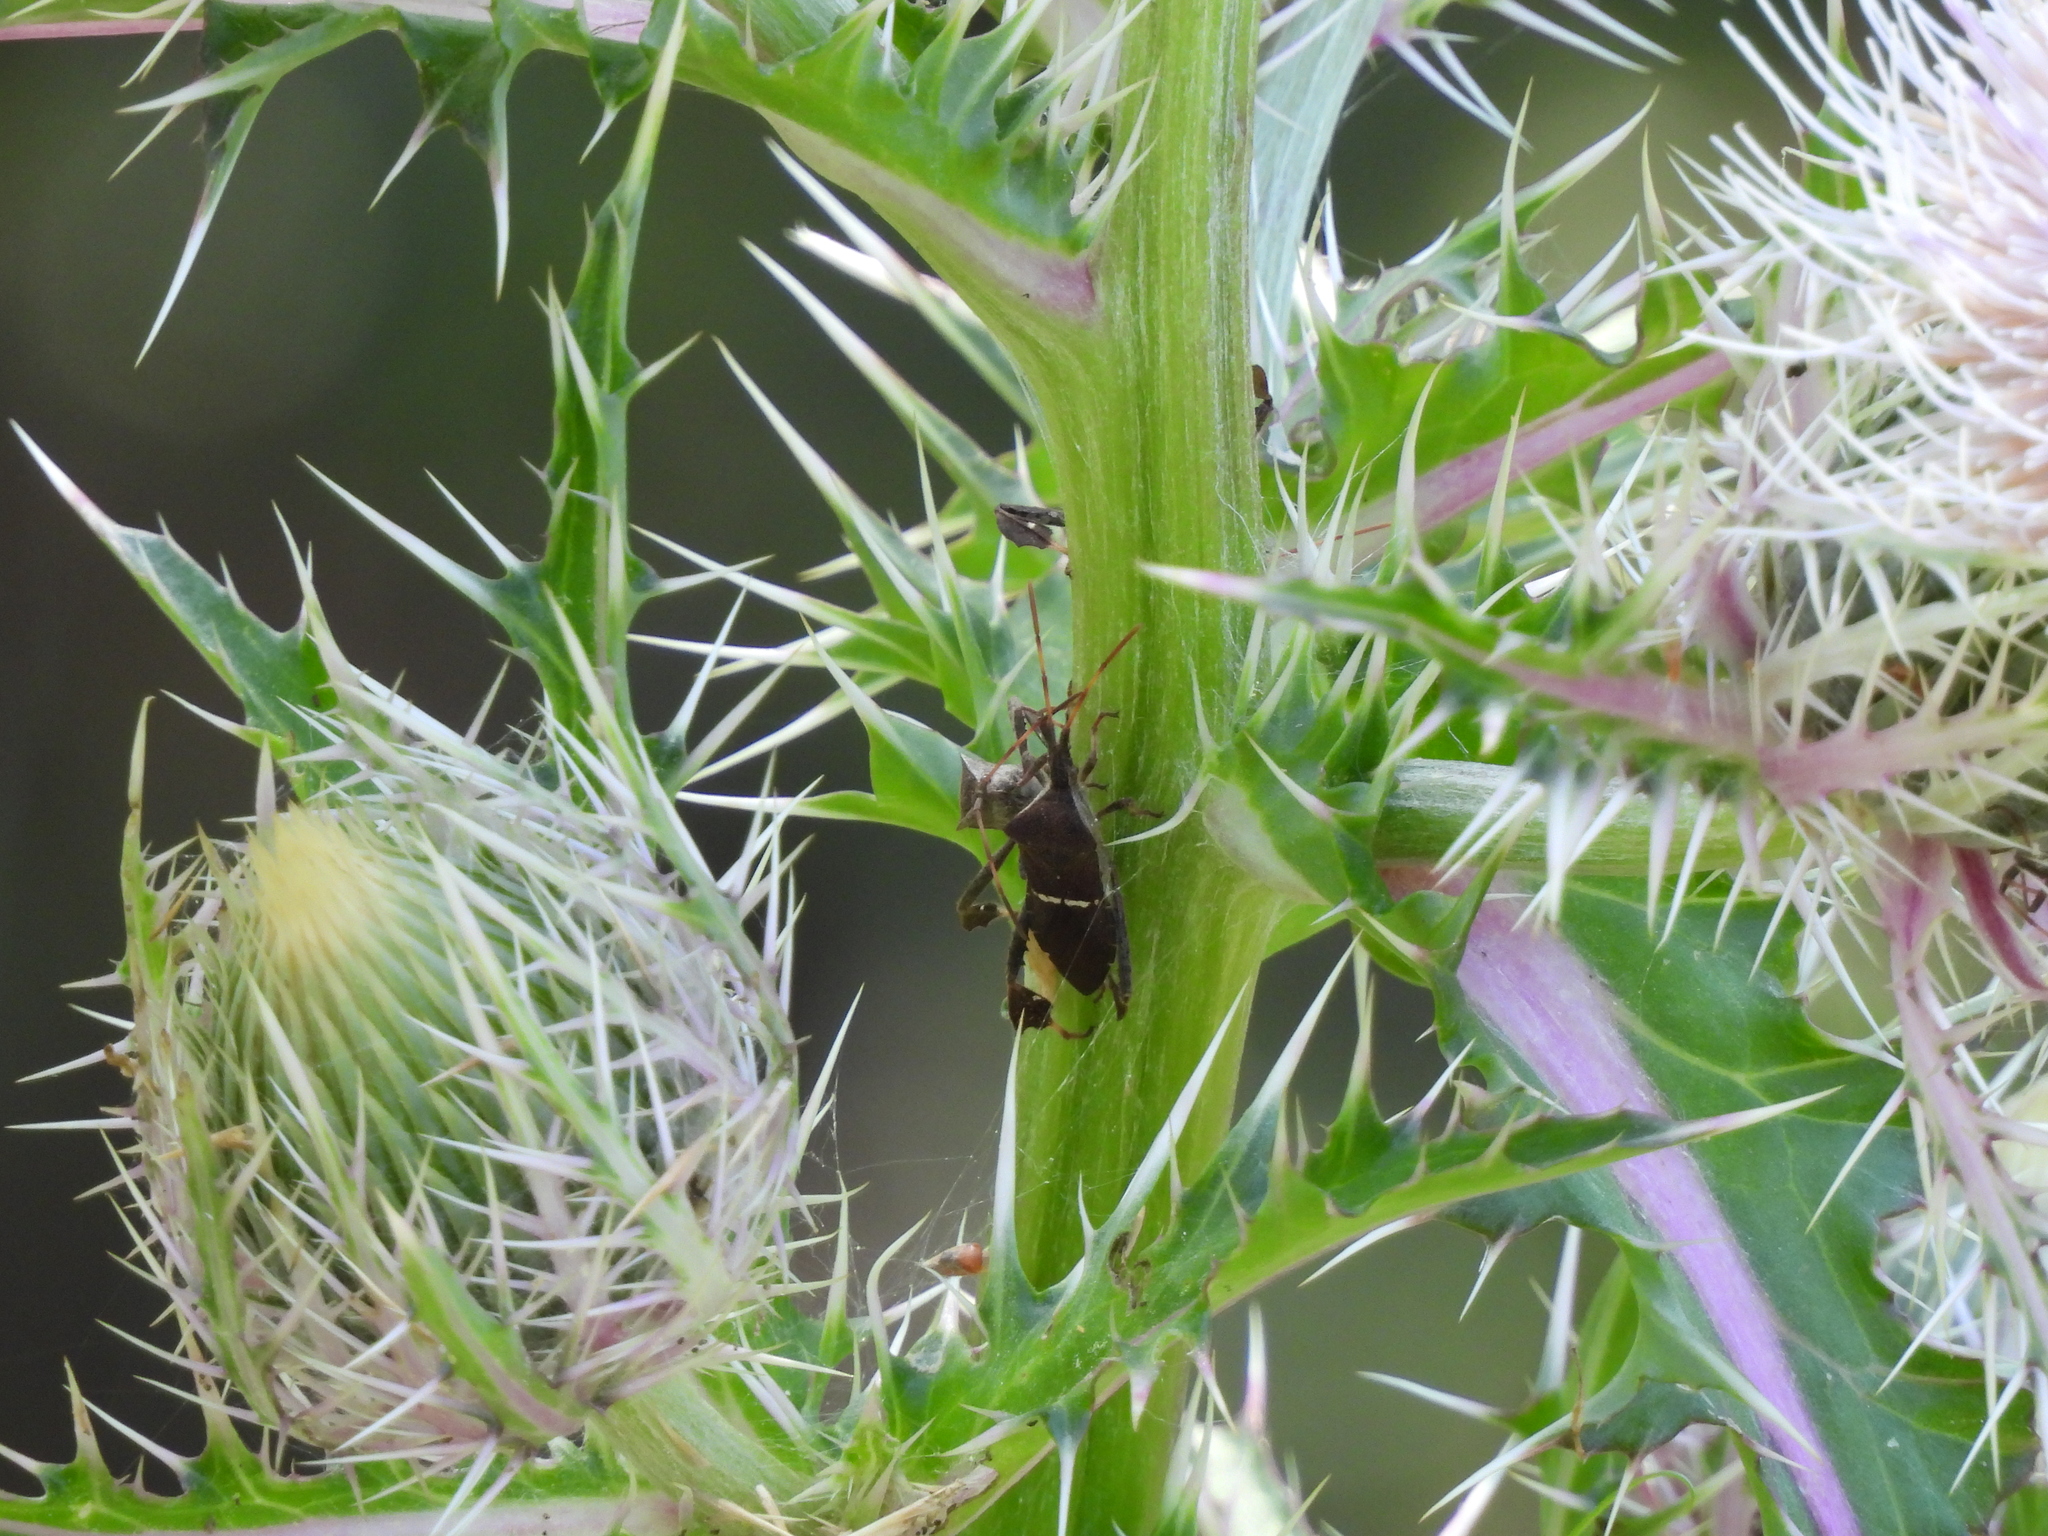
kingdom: Animalia
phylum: Arthropoda
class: Insecta
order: Hemiptera
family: Coreidae
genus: Leptoglossus
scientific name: Leptoglossus phyllopus
